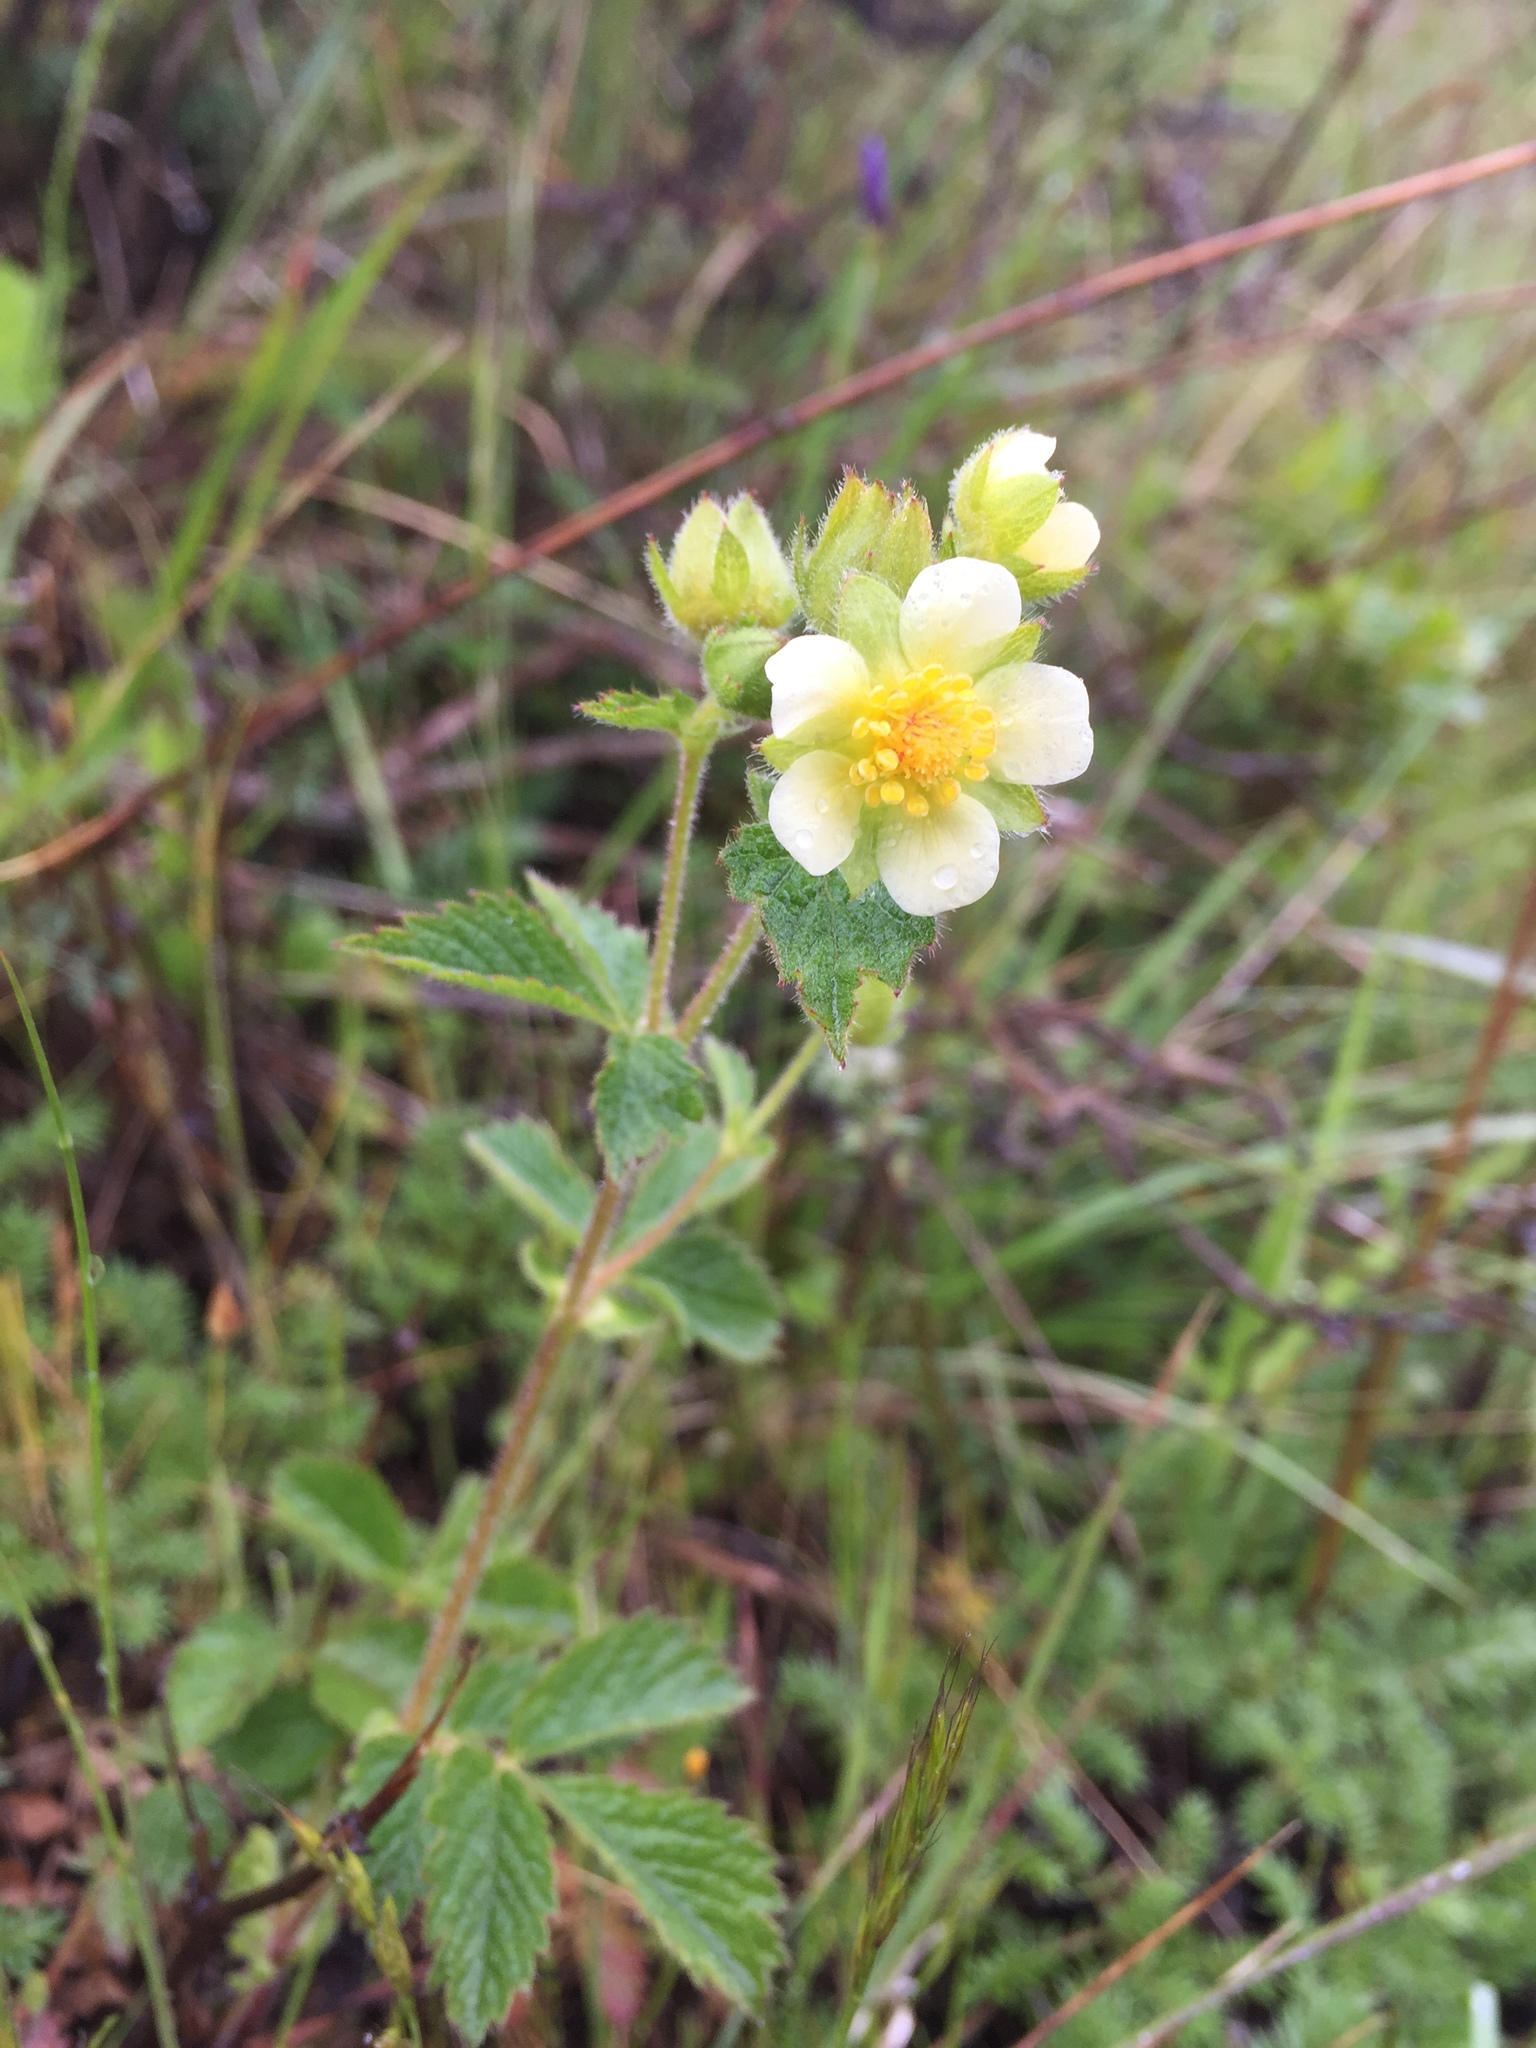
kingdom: Plantae
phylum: Tracheophyta
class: Magnoliopsida
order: Rosales
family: Rosaceae
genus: Drymocallis
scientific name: Drymocallis glandulosa
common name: Sticky cinquefoil
